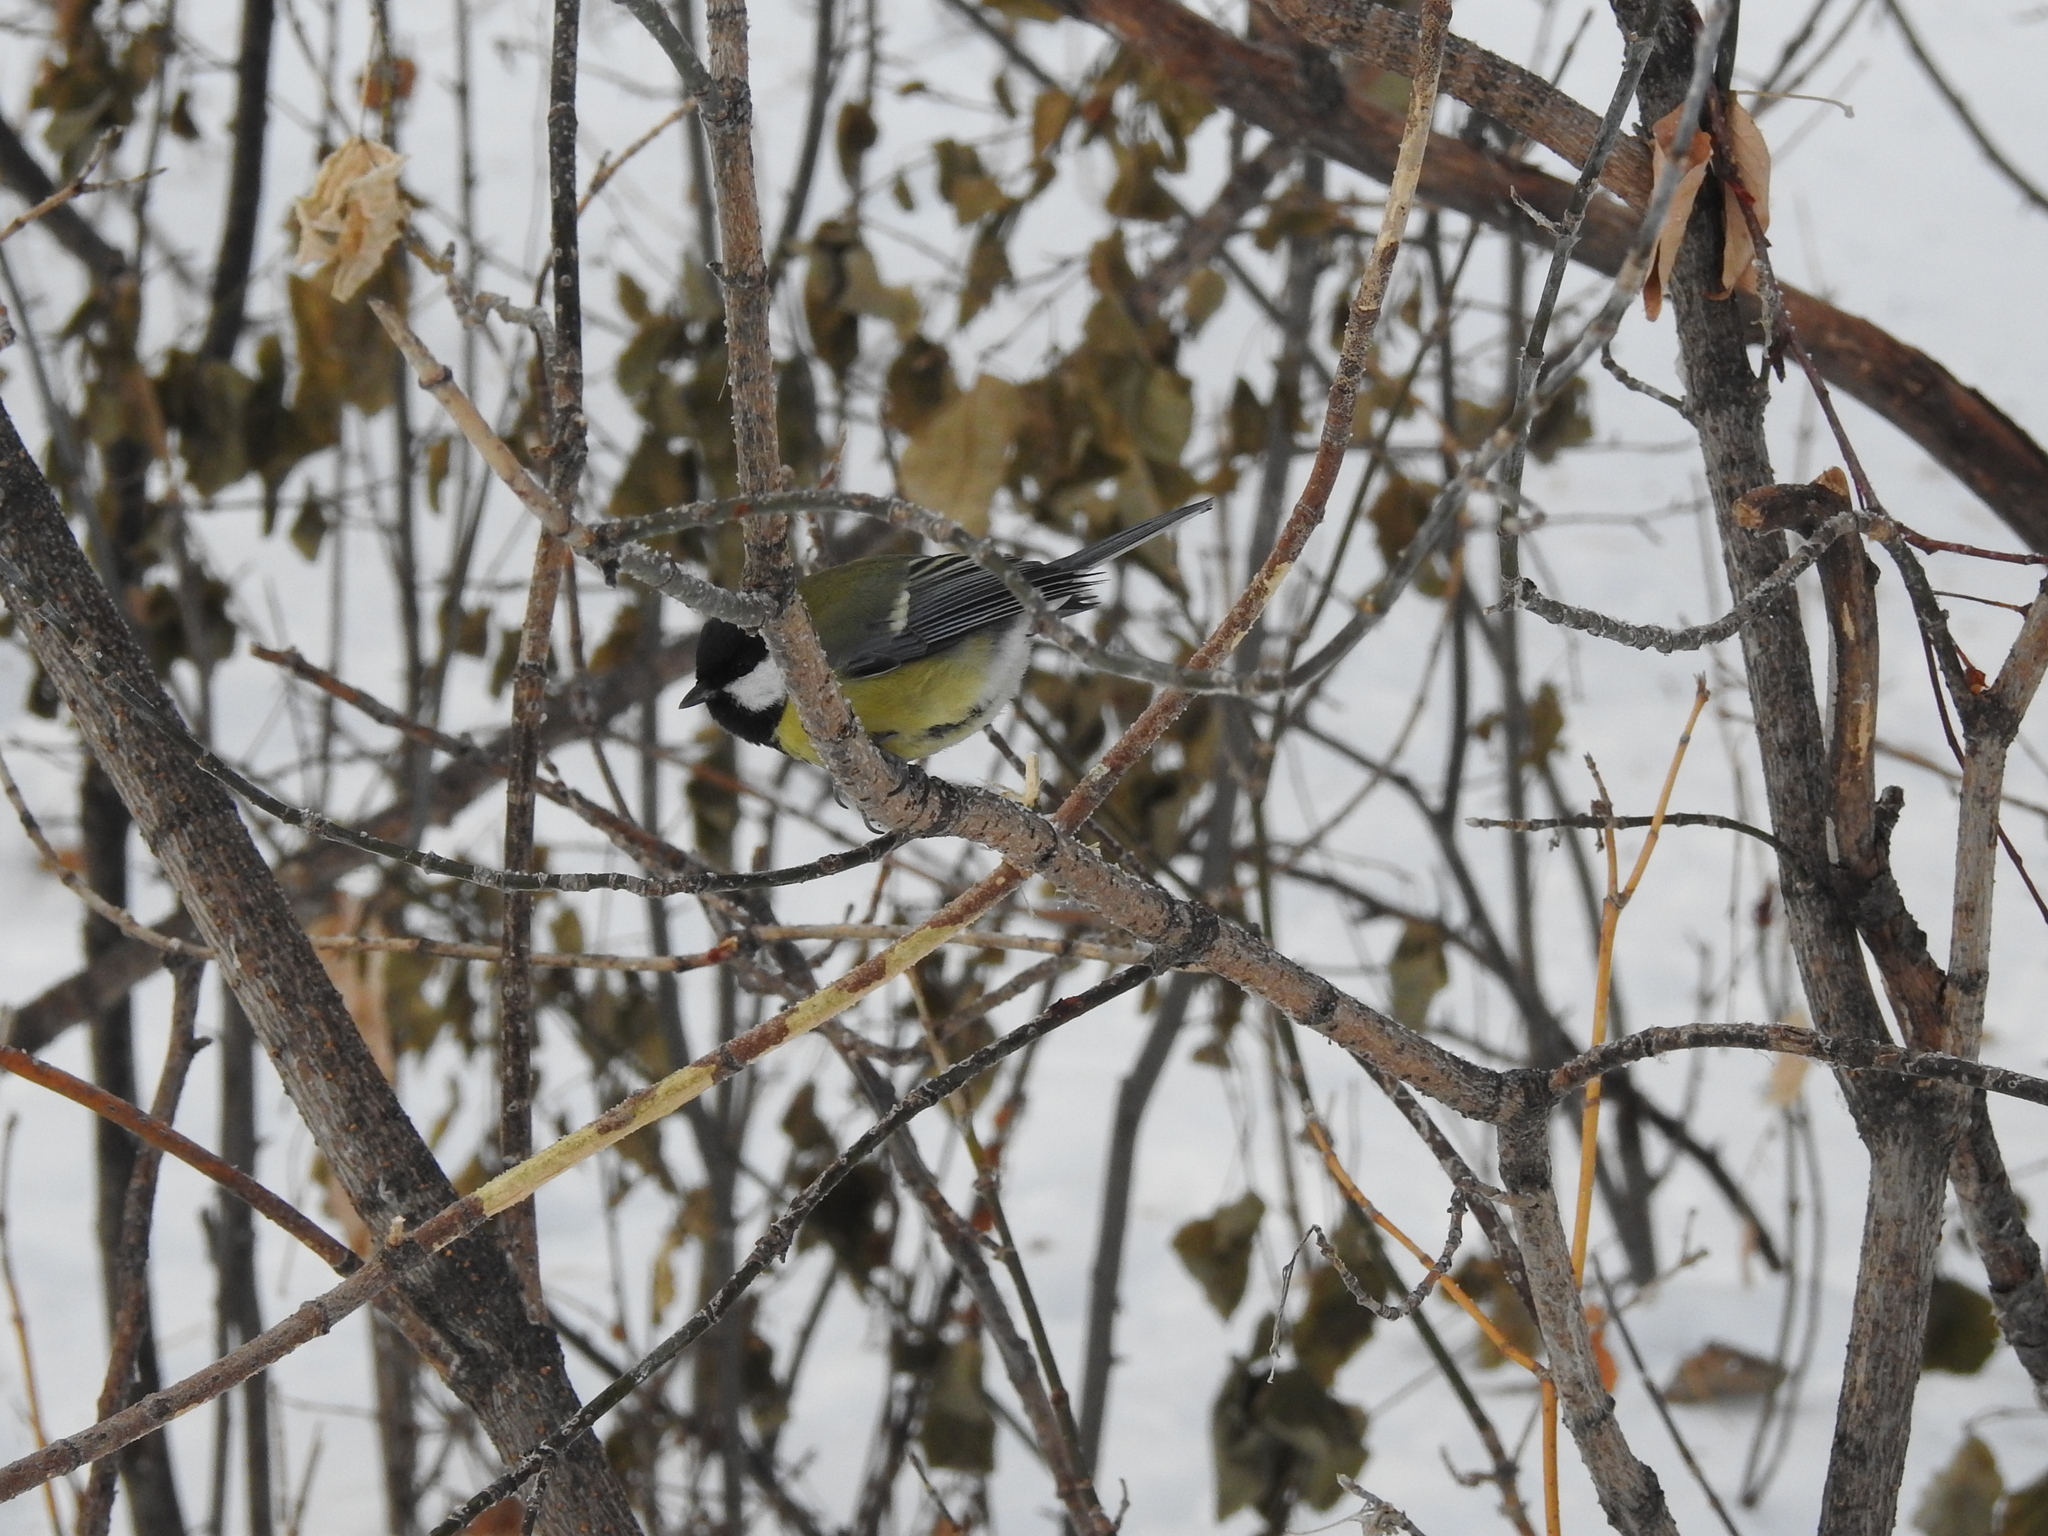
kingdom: Animalia
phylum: Chordata
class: Aves
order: Passeriformes
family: Paridae
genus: Parus
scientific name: Parus major
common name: Great tit
